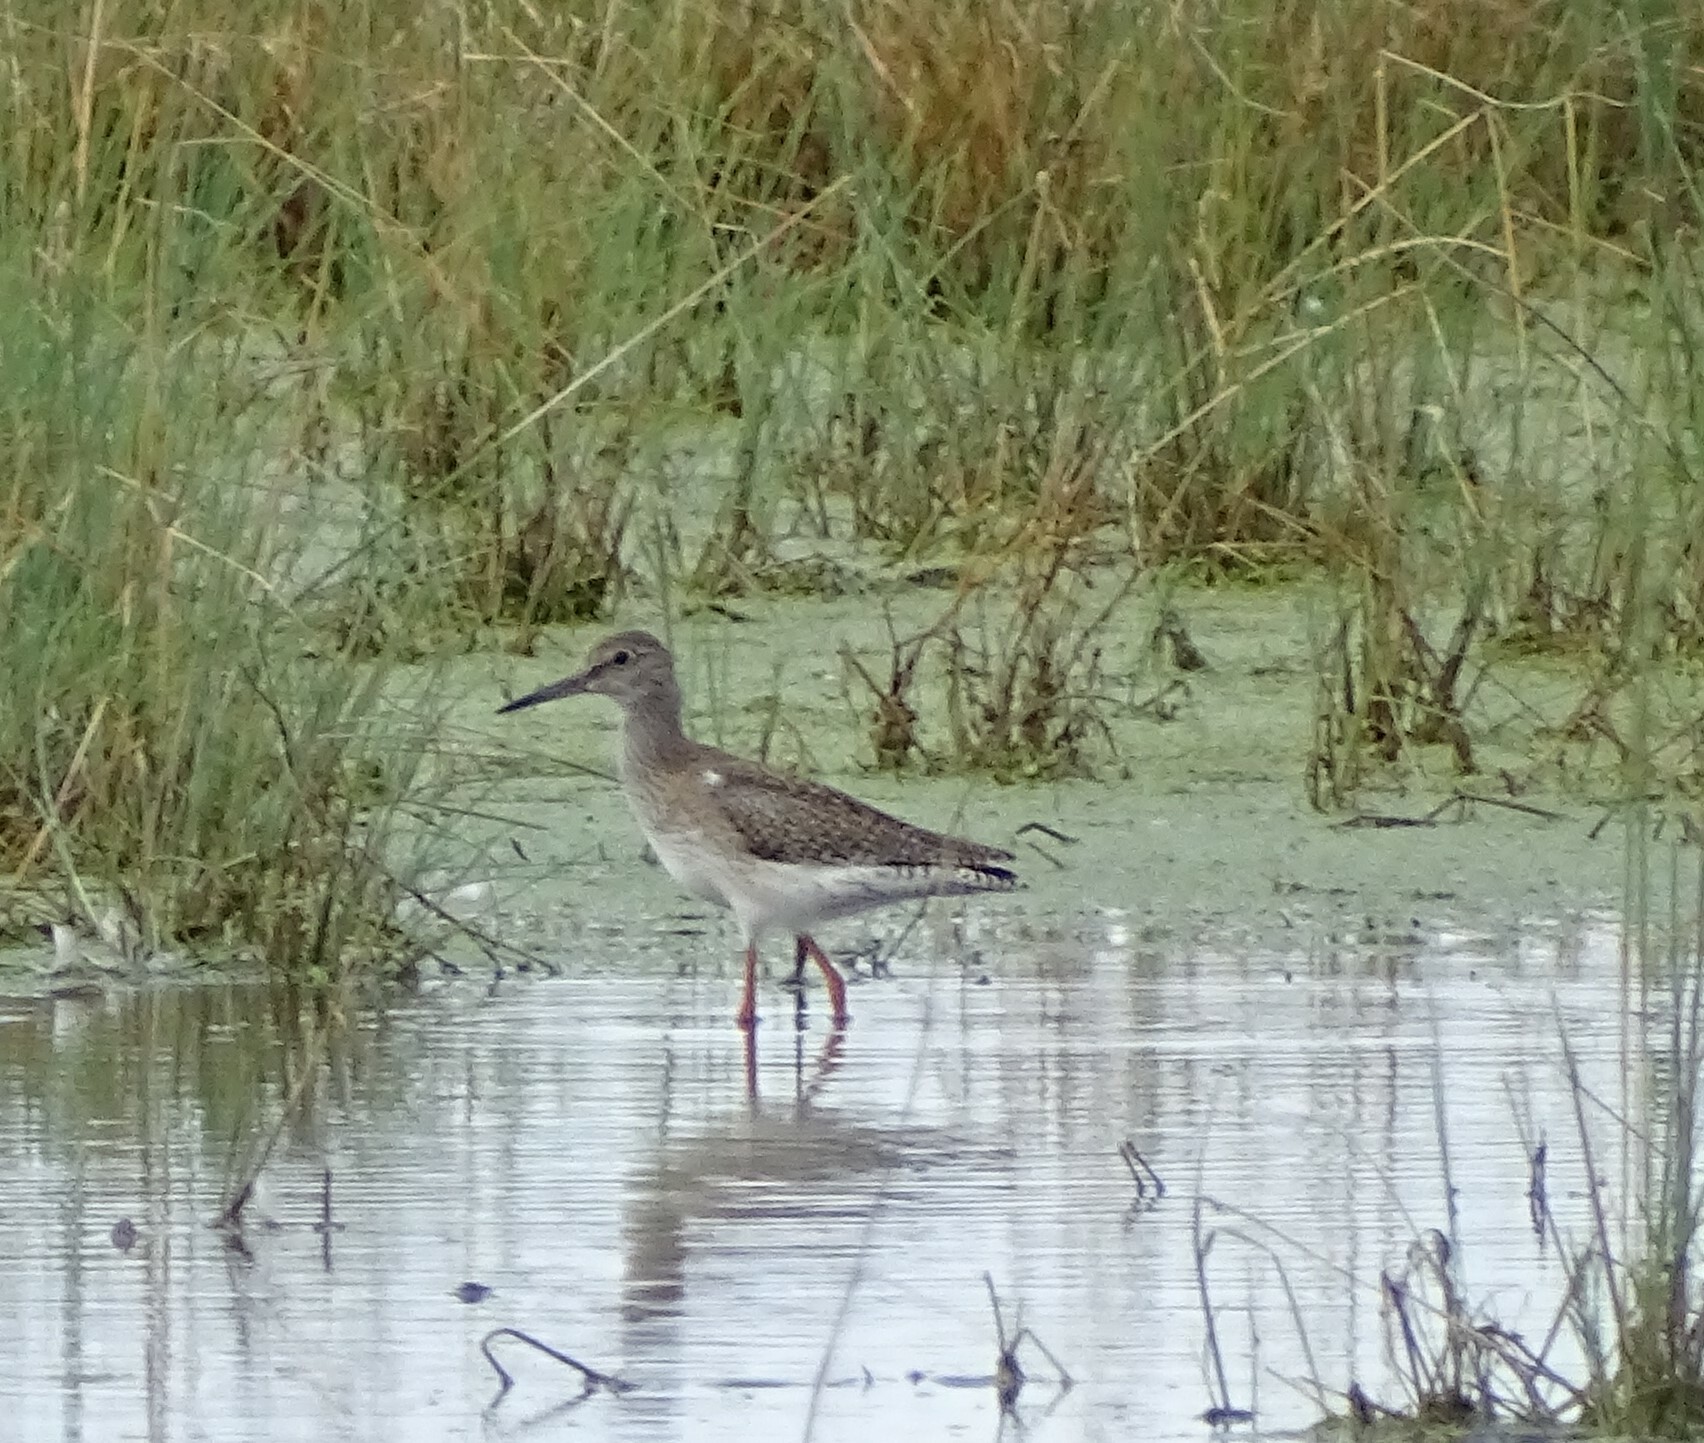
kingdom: Animalia
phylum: Chordata
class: Aves
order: Charadriiformes
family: Scolopacidae
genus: Tringa
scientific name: Tringa totanus
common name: Common redshank
